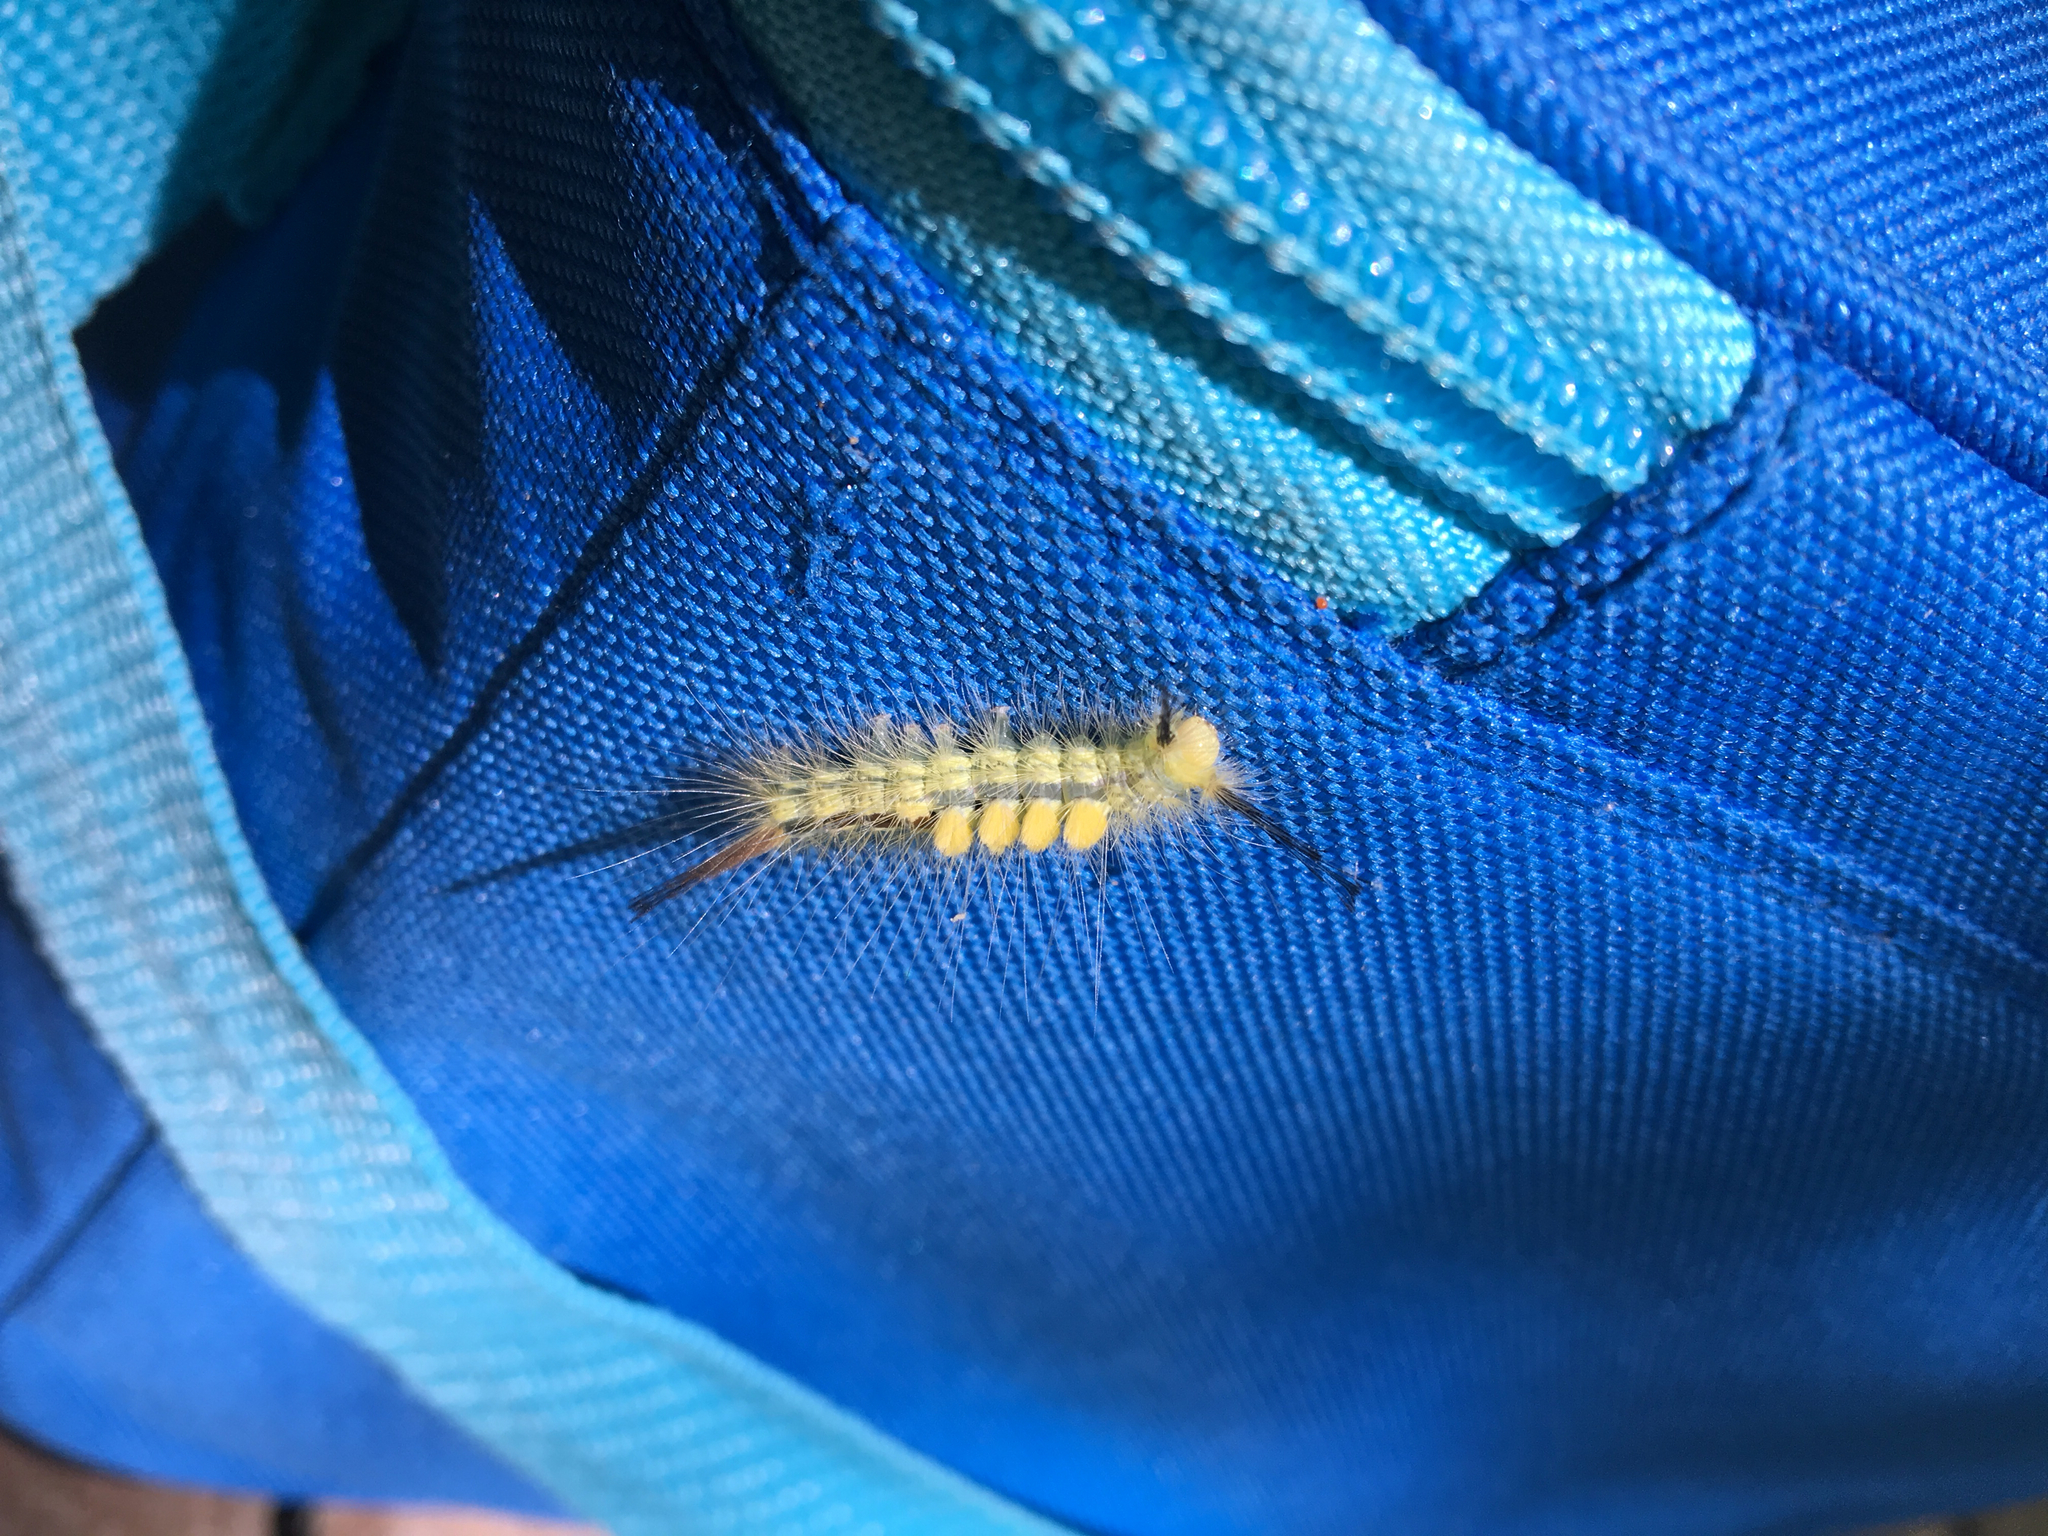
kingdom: Animalia
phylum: Arthropoda
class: Insecta
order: Lepidoptera
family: Erebidae
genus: Orgyia
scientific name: Orgyia definita
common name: Definite tussock moth
